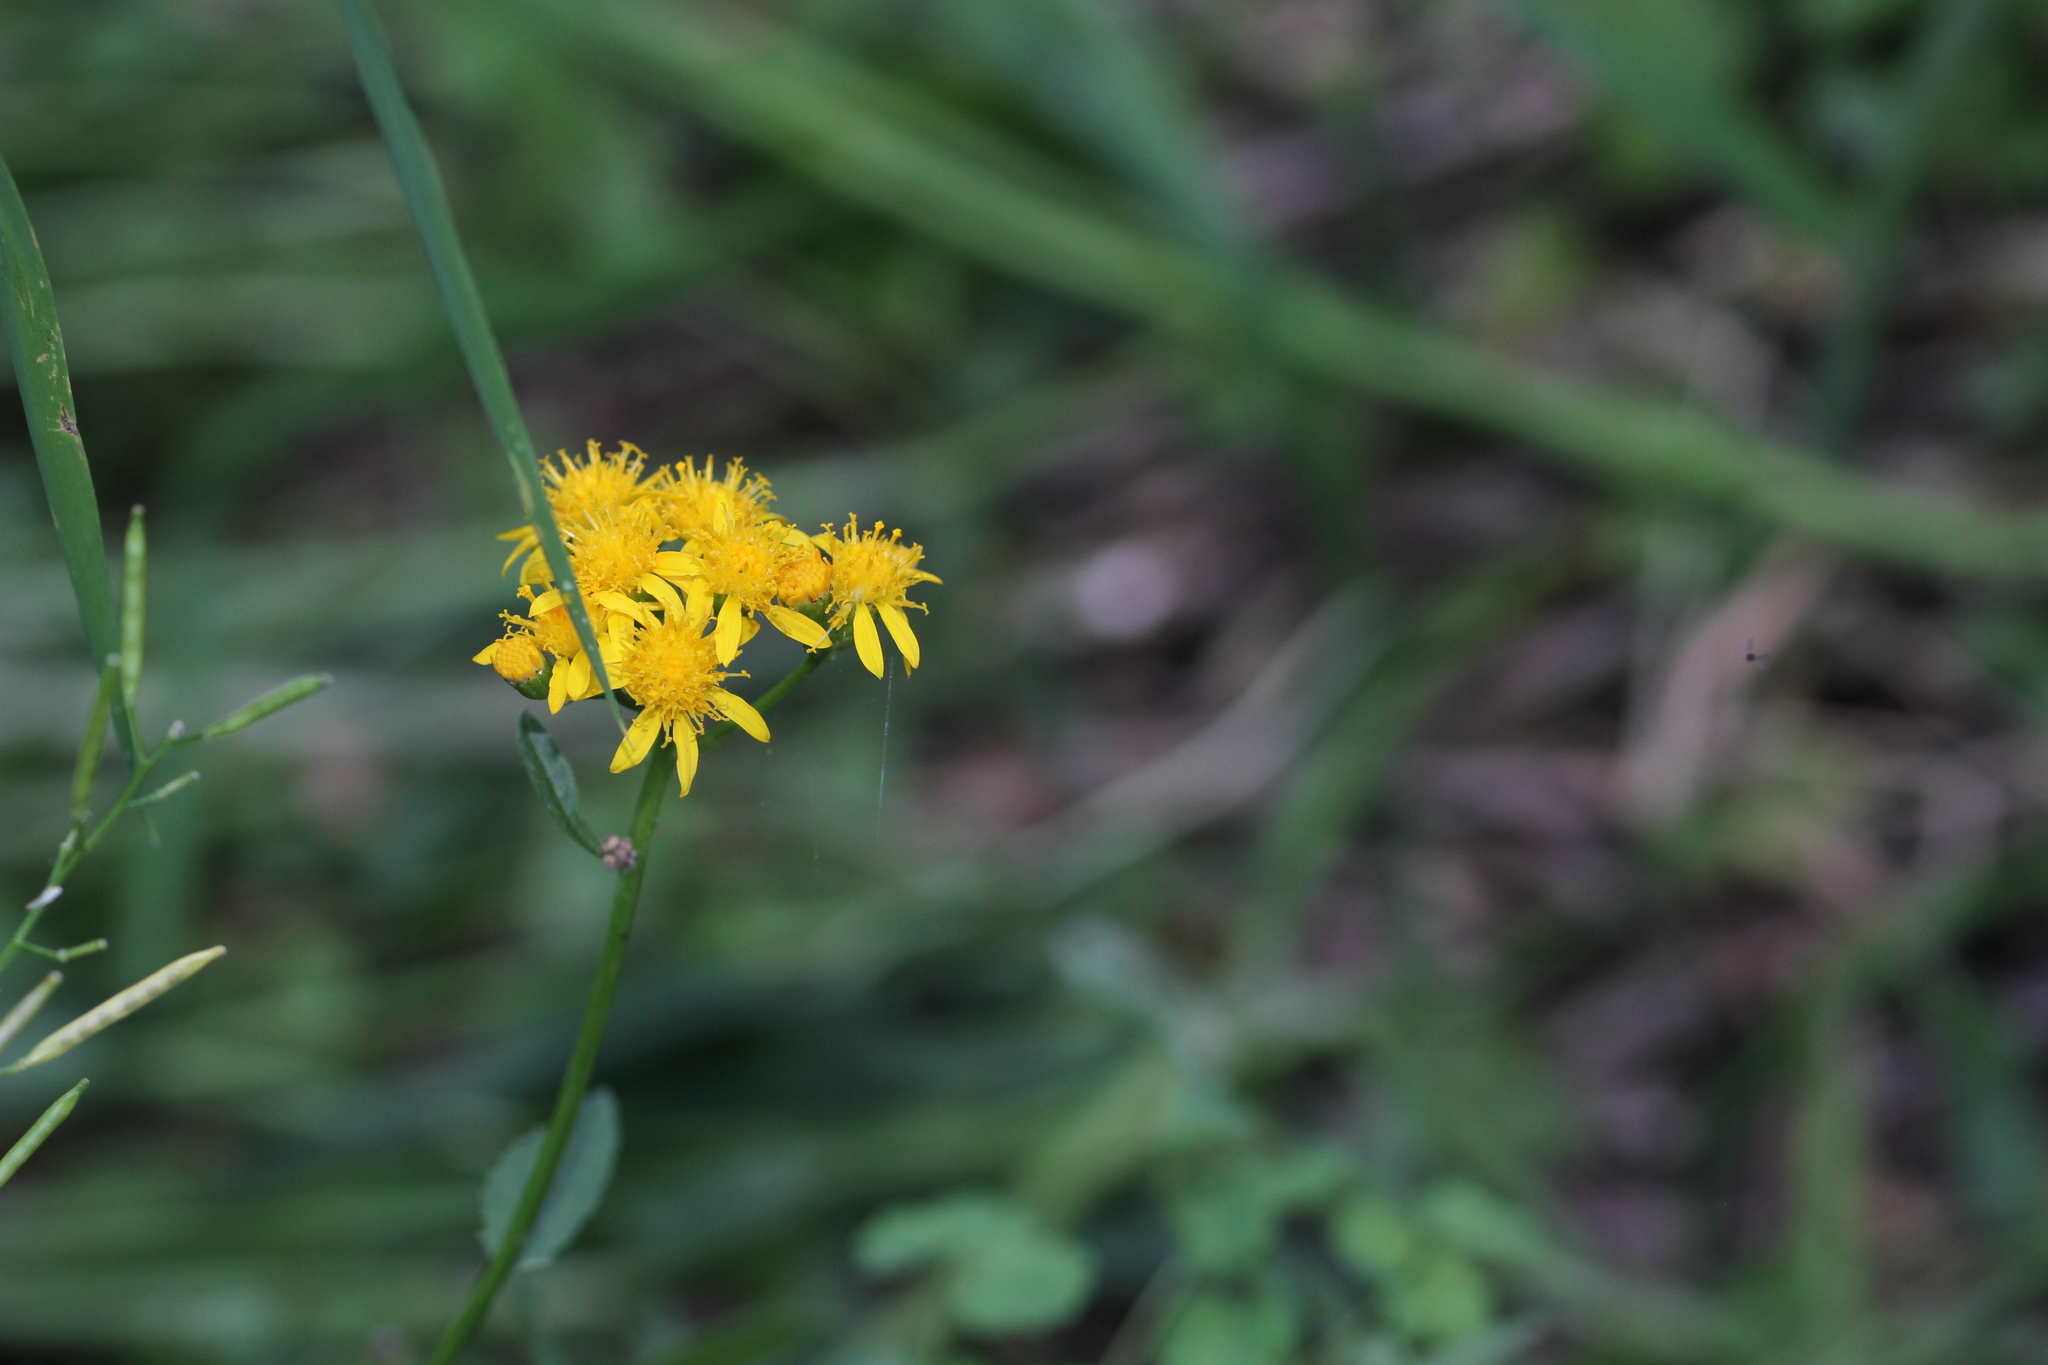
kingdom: Plantae
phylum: Tracheophyta
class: Magnoliopsida
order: Asterales
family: Asteraceae
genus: Senecio
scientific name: Senecio triangularis
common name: Arrowleaf butterweed
